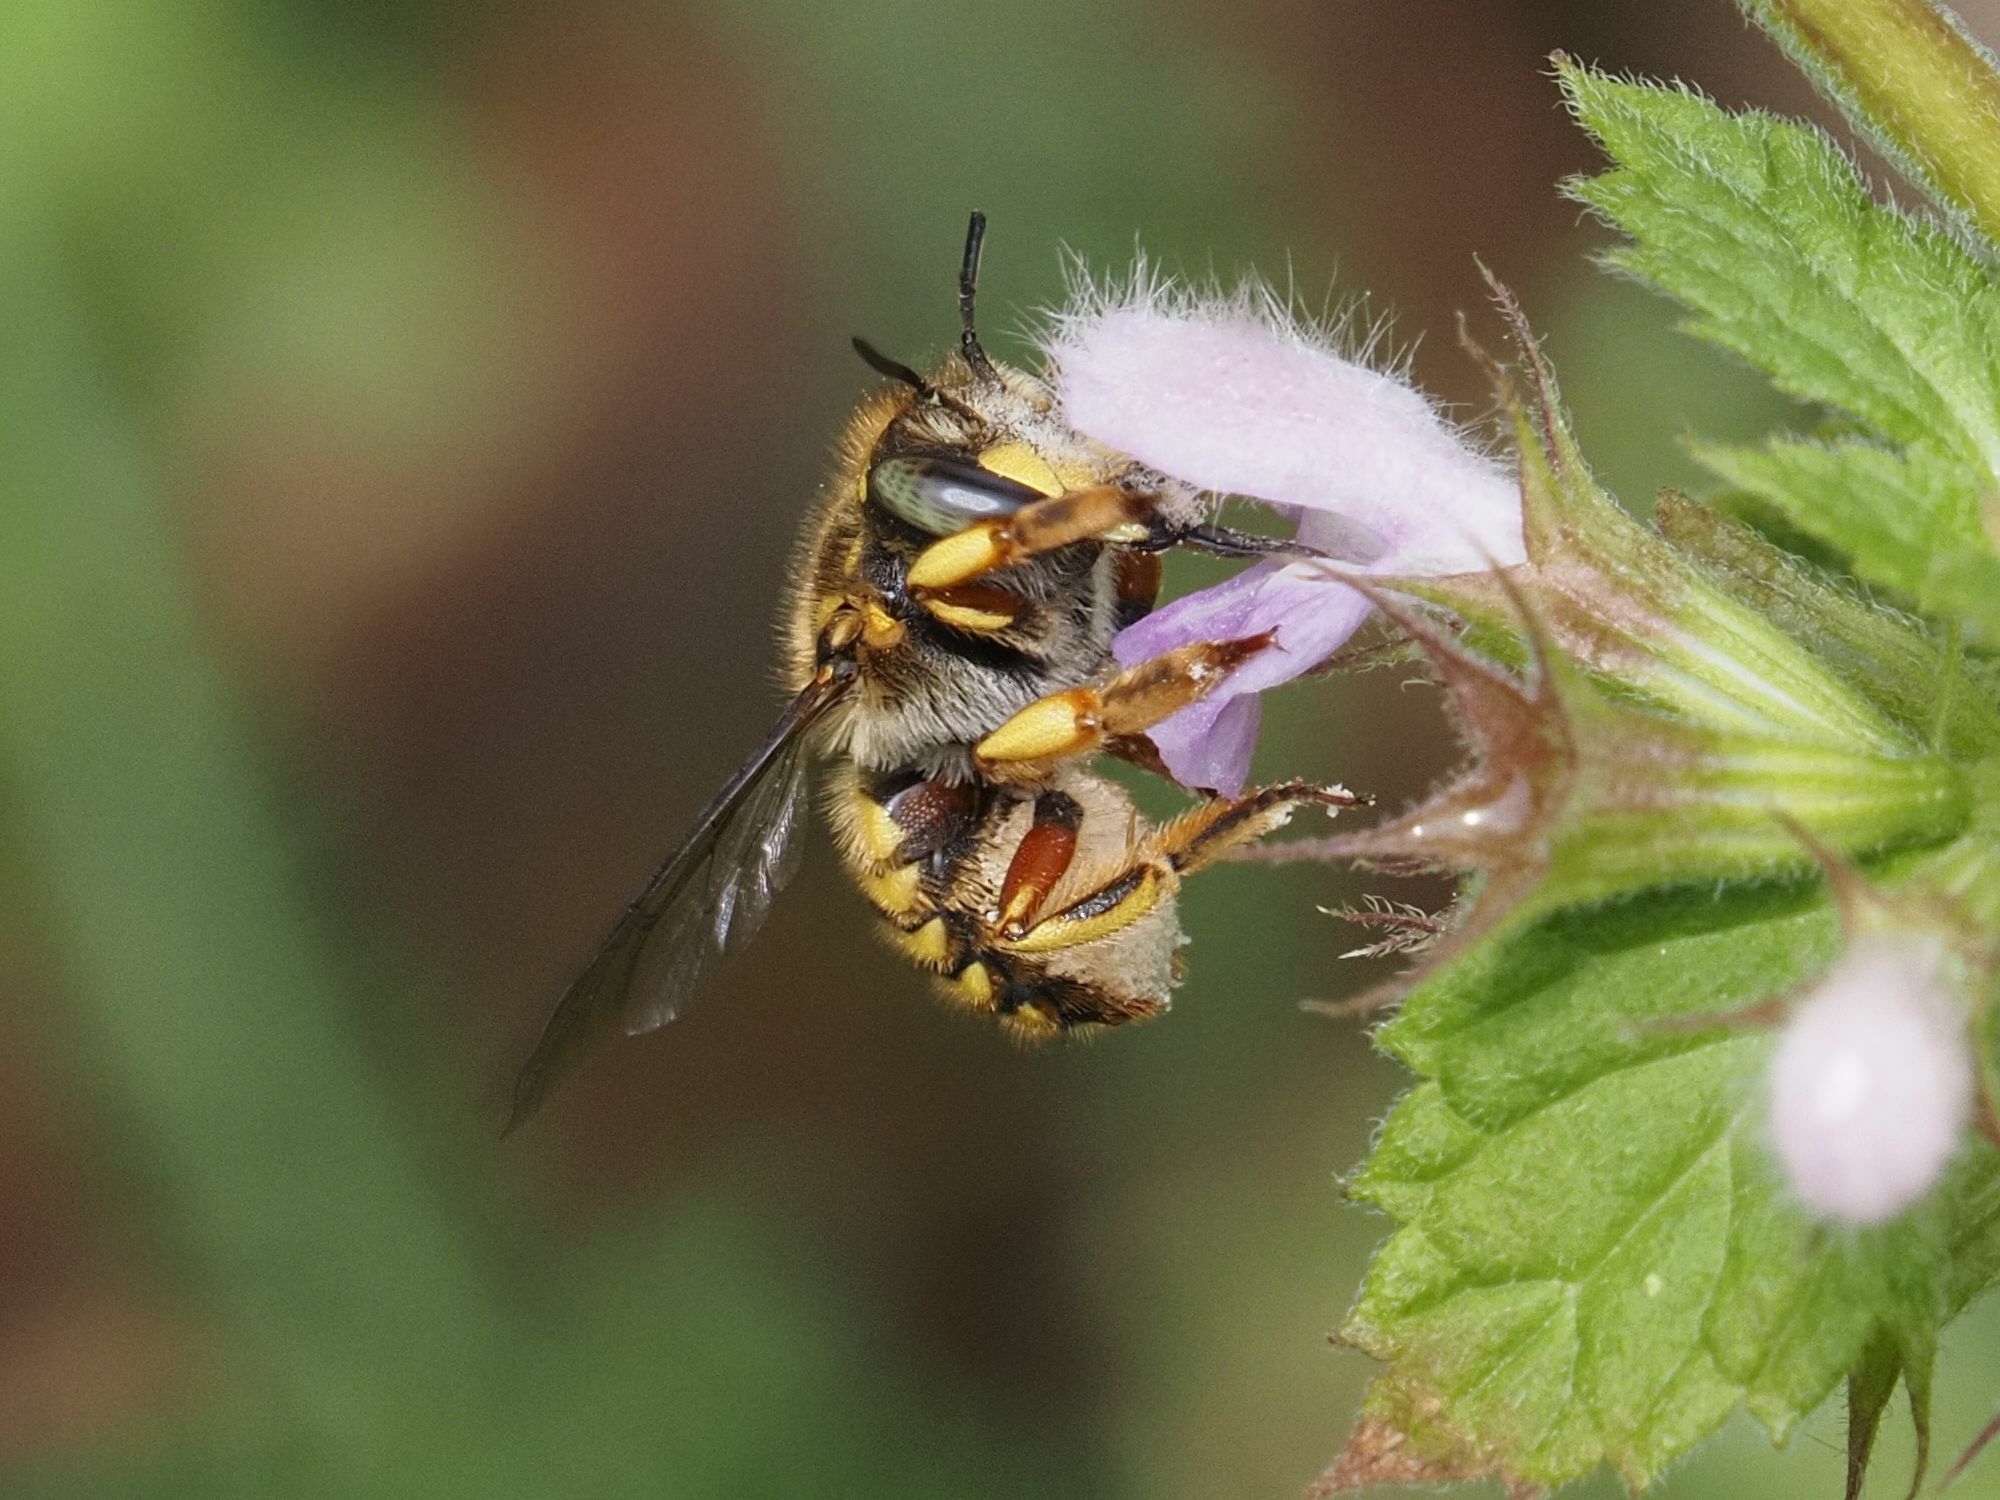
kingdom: Animalia
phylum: Arthropoda
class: Insecta
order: Hymenoptera
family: Megachilidae
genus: Anthidium
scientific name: Anthidium manicatum
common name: Wool carder bee
